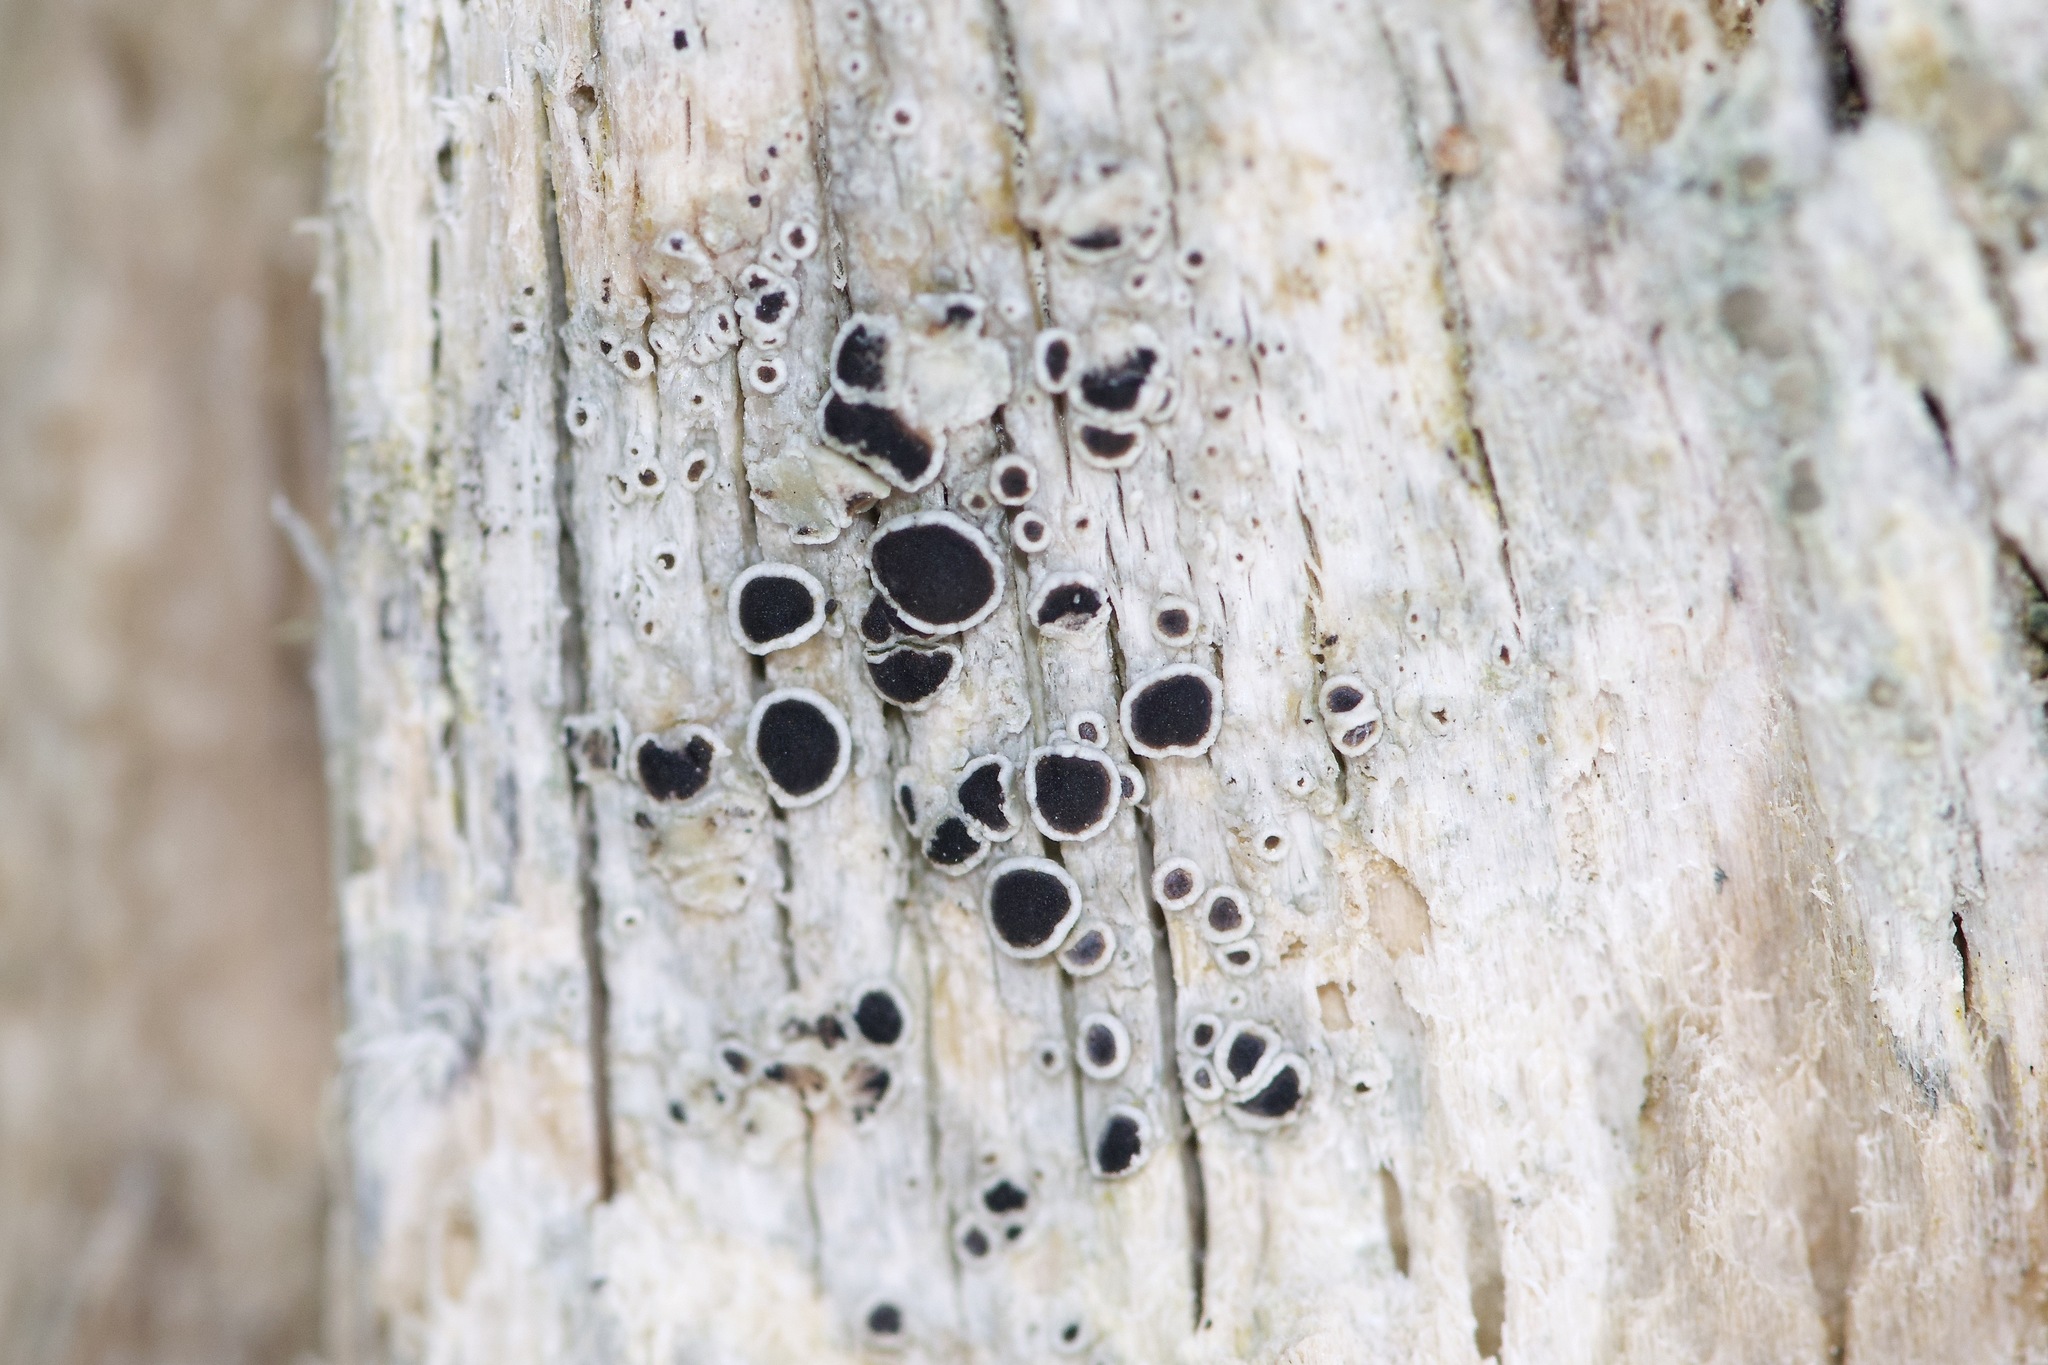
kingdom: Fungi
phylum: Ascomycota
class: Lecanoromycetes
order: Lecanorales
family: Lecanoraceae
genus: Lecanora
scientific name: Lecanora circumborealis
